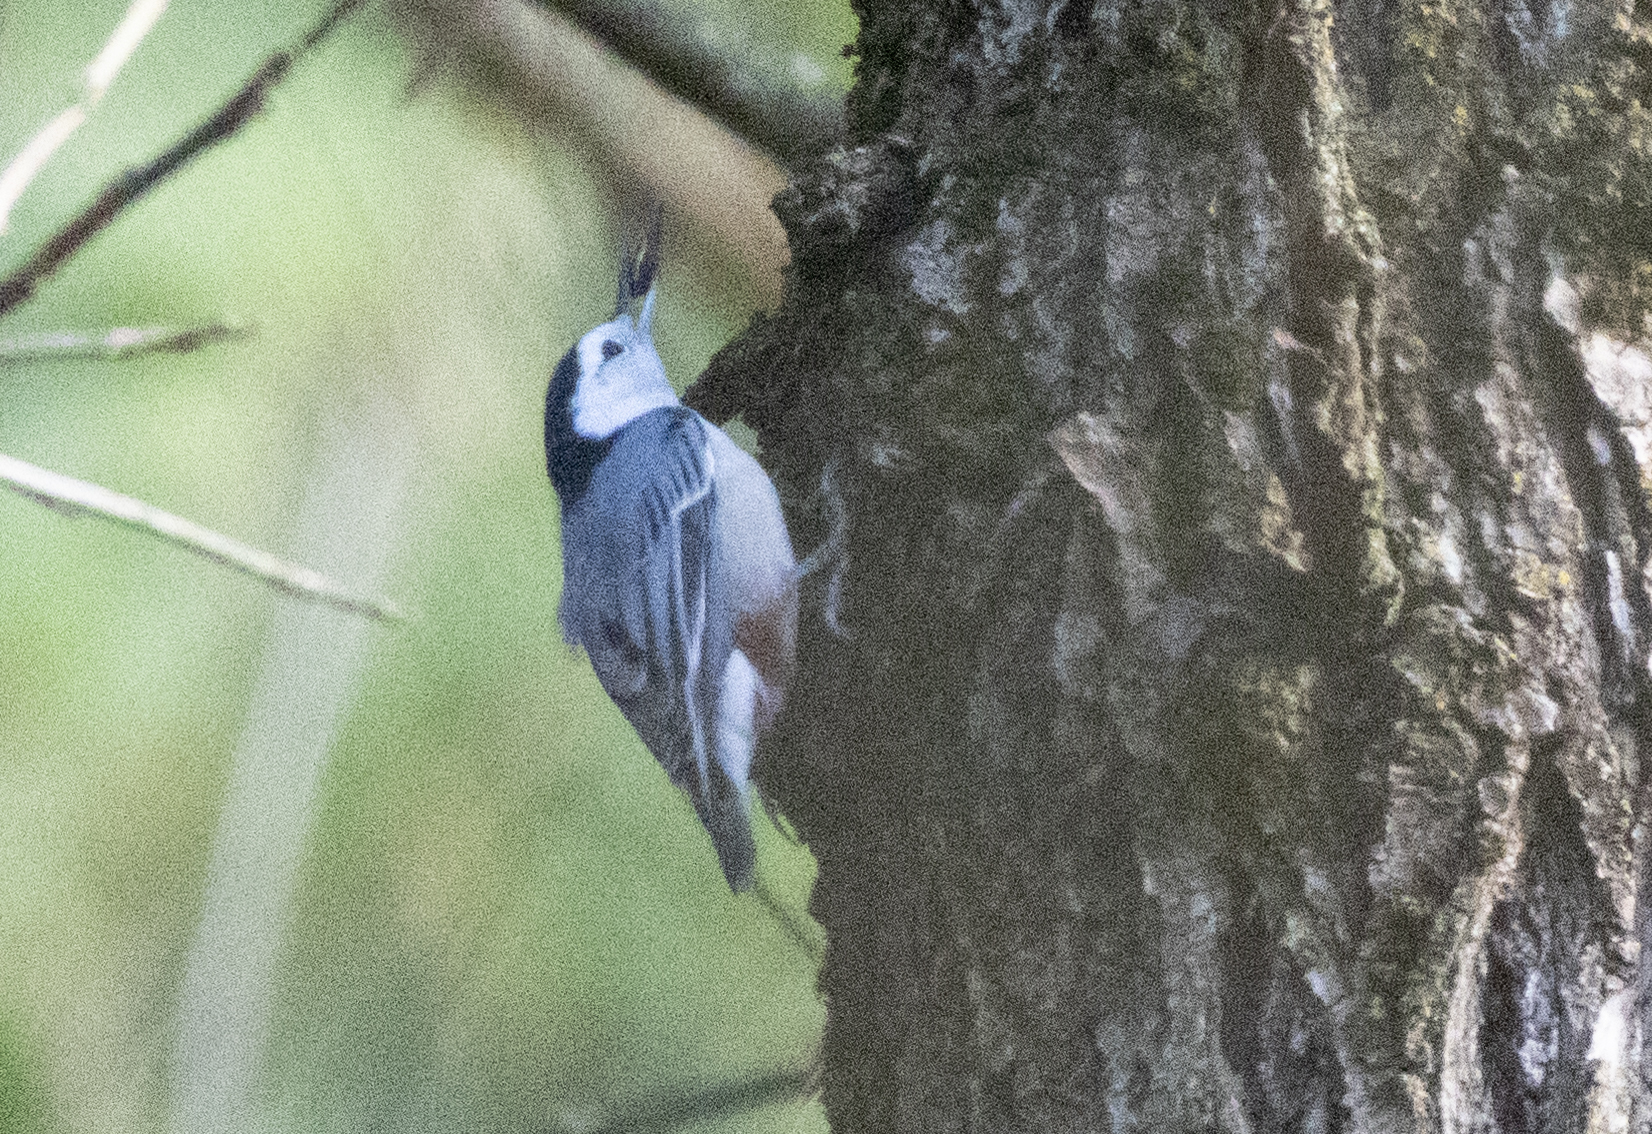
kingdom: Animalia
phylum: Chordata
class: Aves
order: Passeriformes
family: Sittidae
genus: Sitta
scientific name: Sitta carolinensis
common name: White-breasted nuthatch
